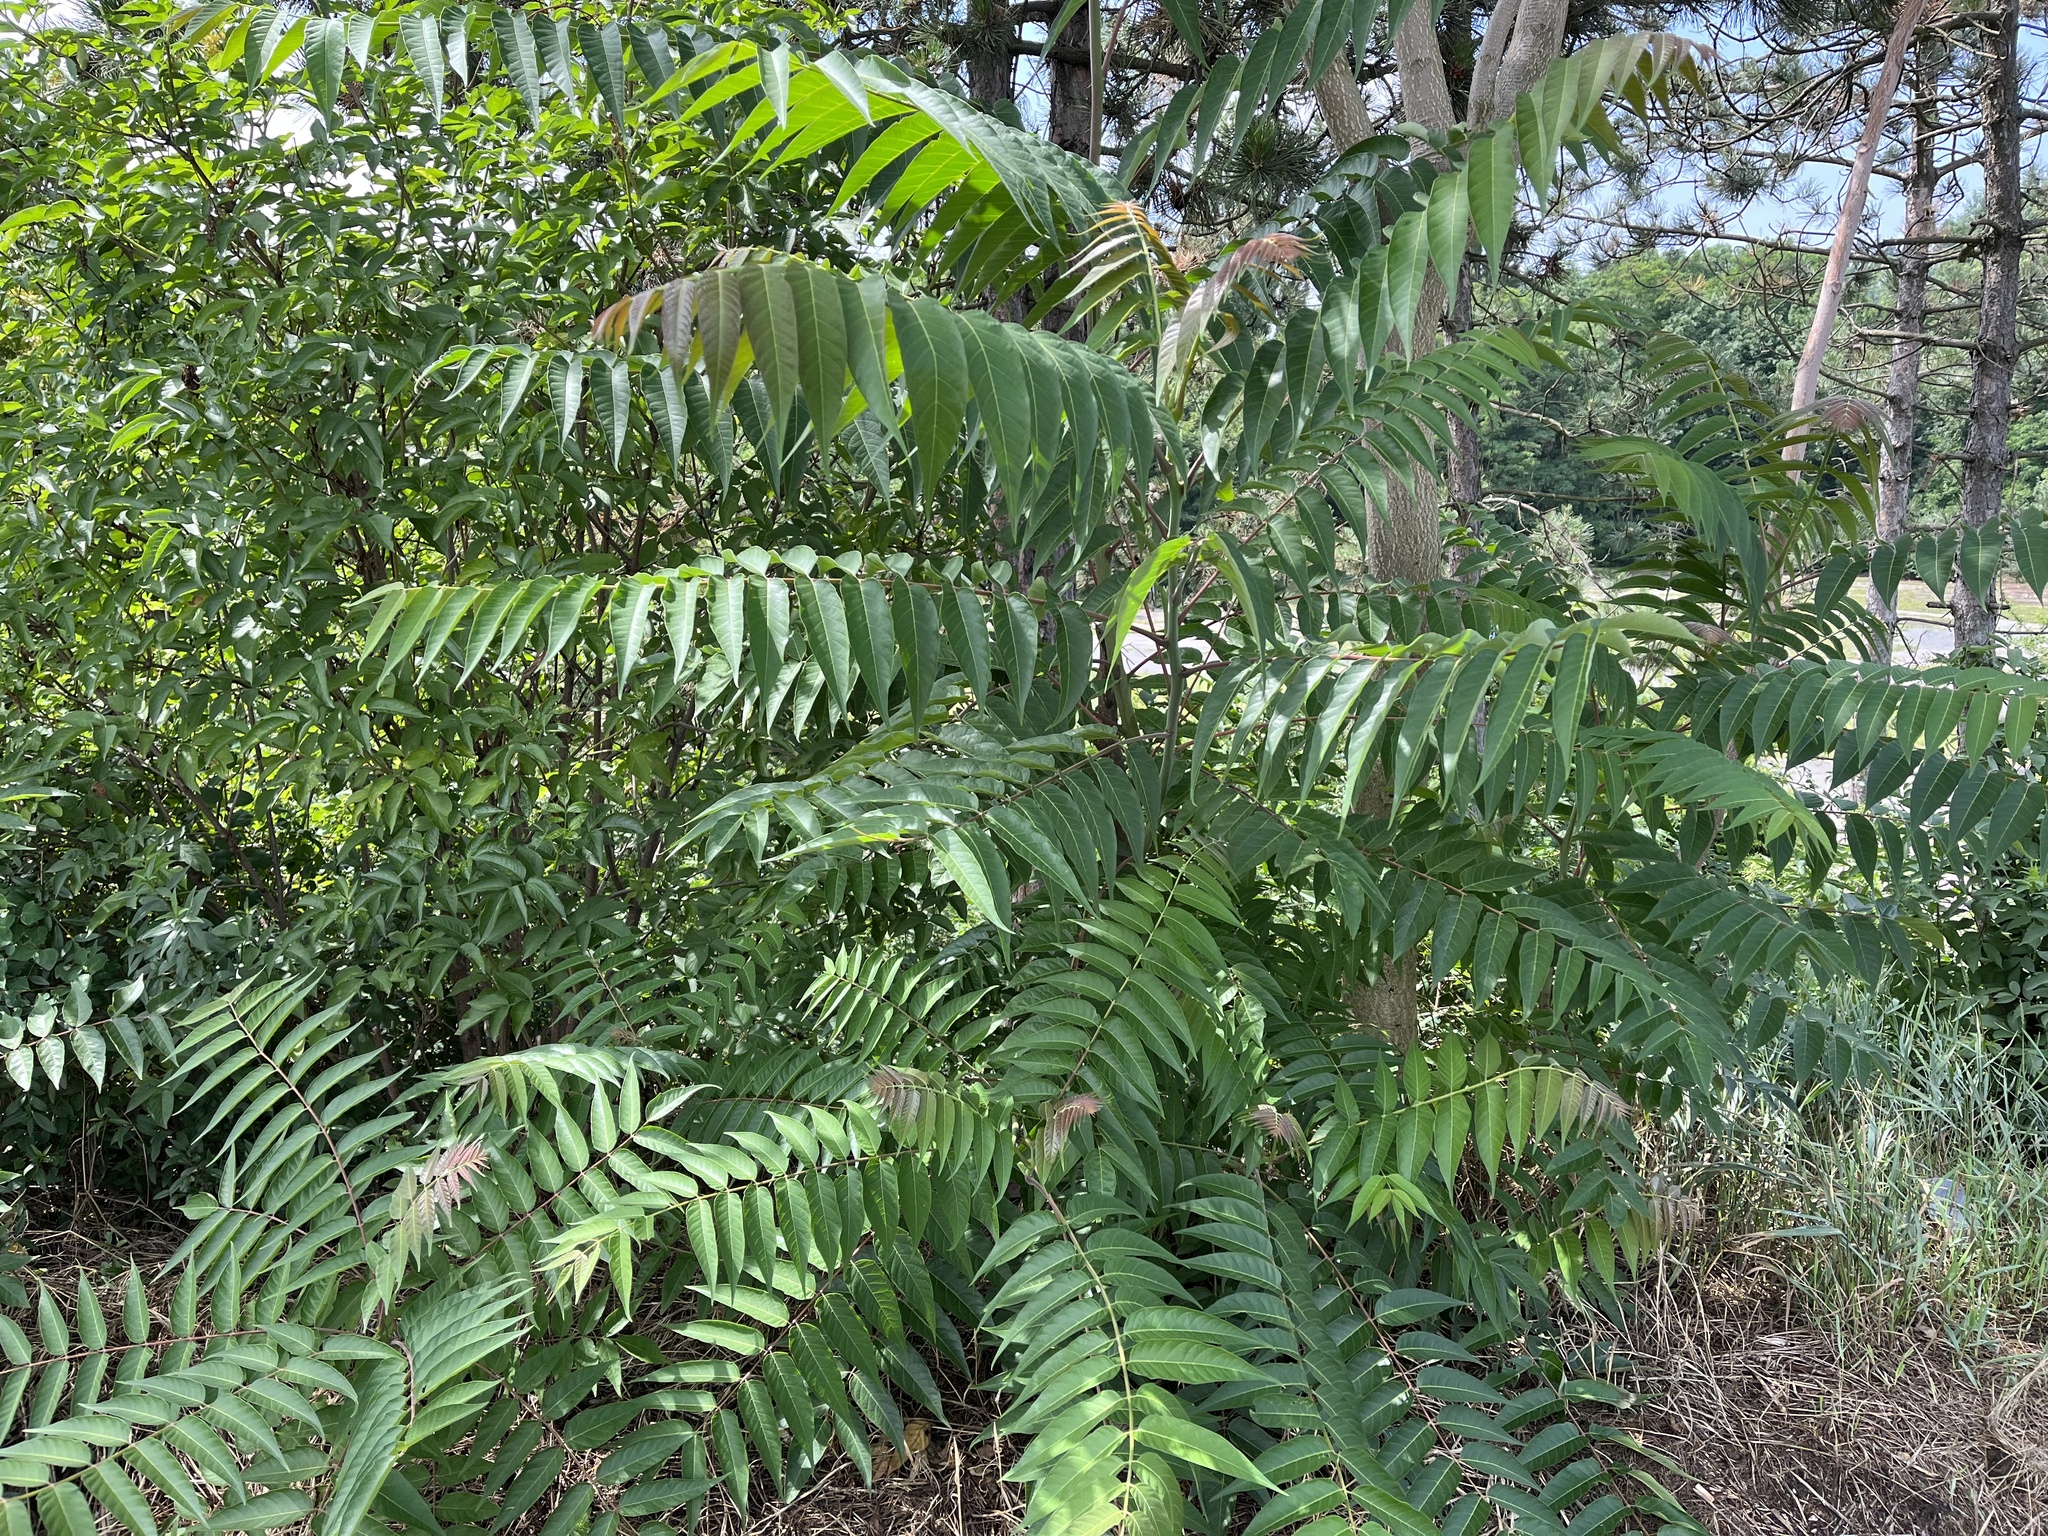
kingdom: Plantae
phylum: Tracheophyta
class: Magnoliopsida
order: Sapindales
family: Simaroubaceae
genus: Ailanthus
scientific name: Ailanthus altissima
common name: Tree-of-heaven
